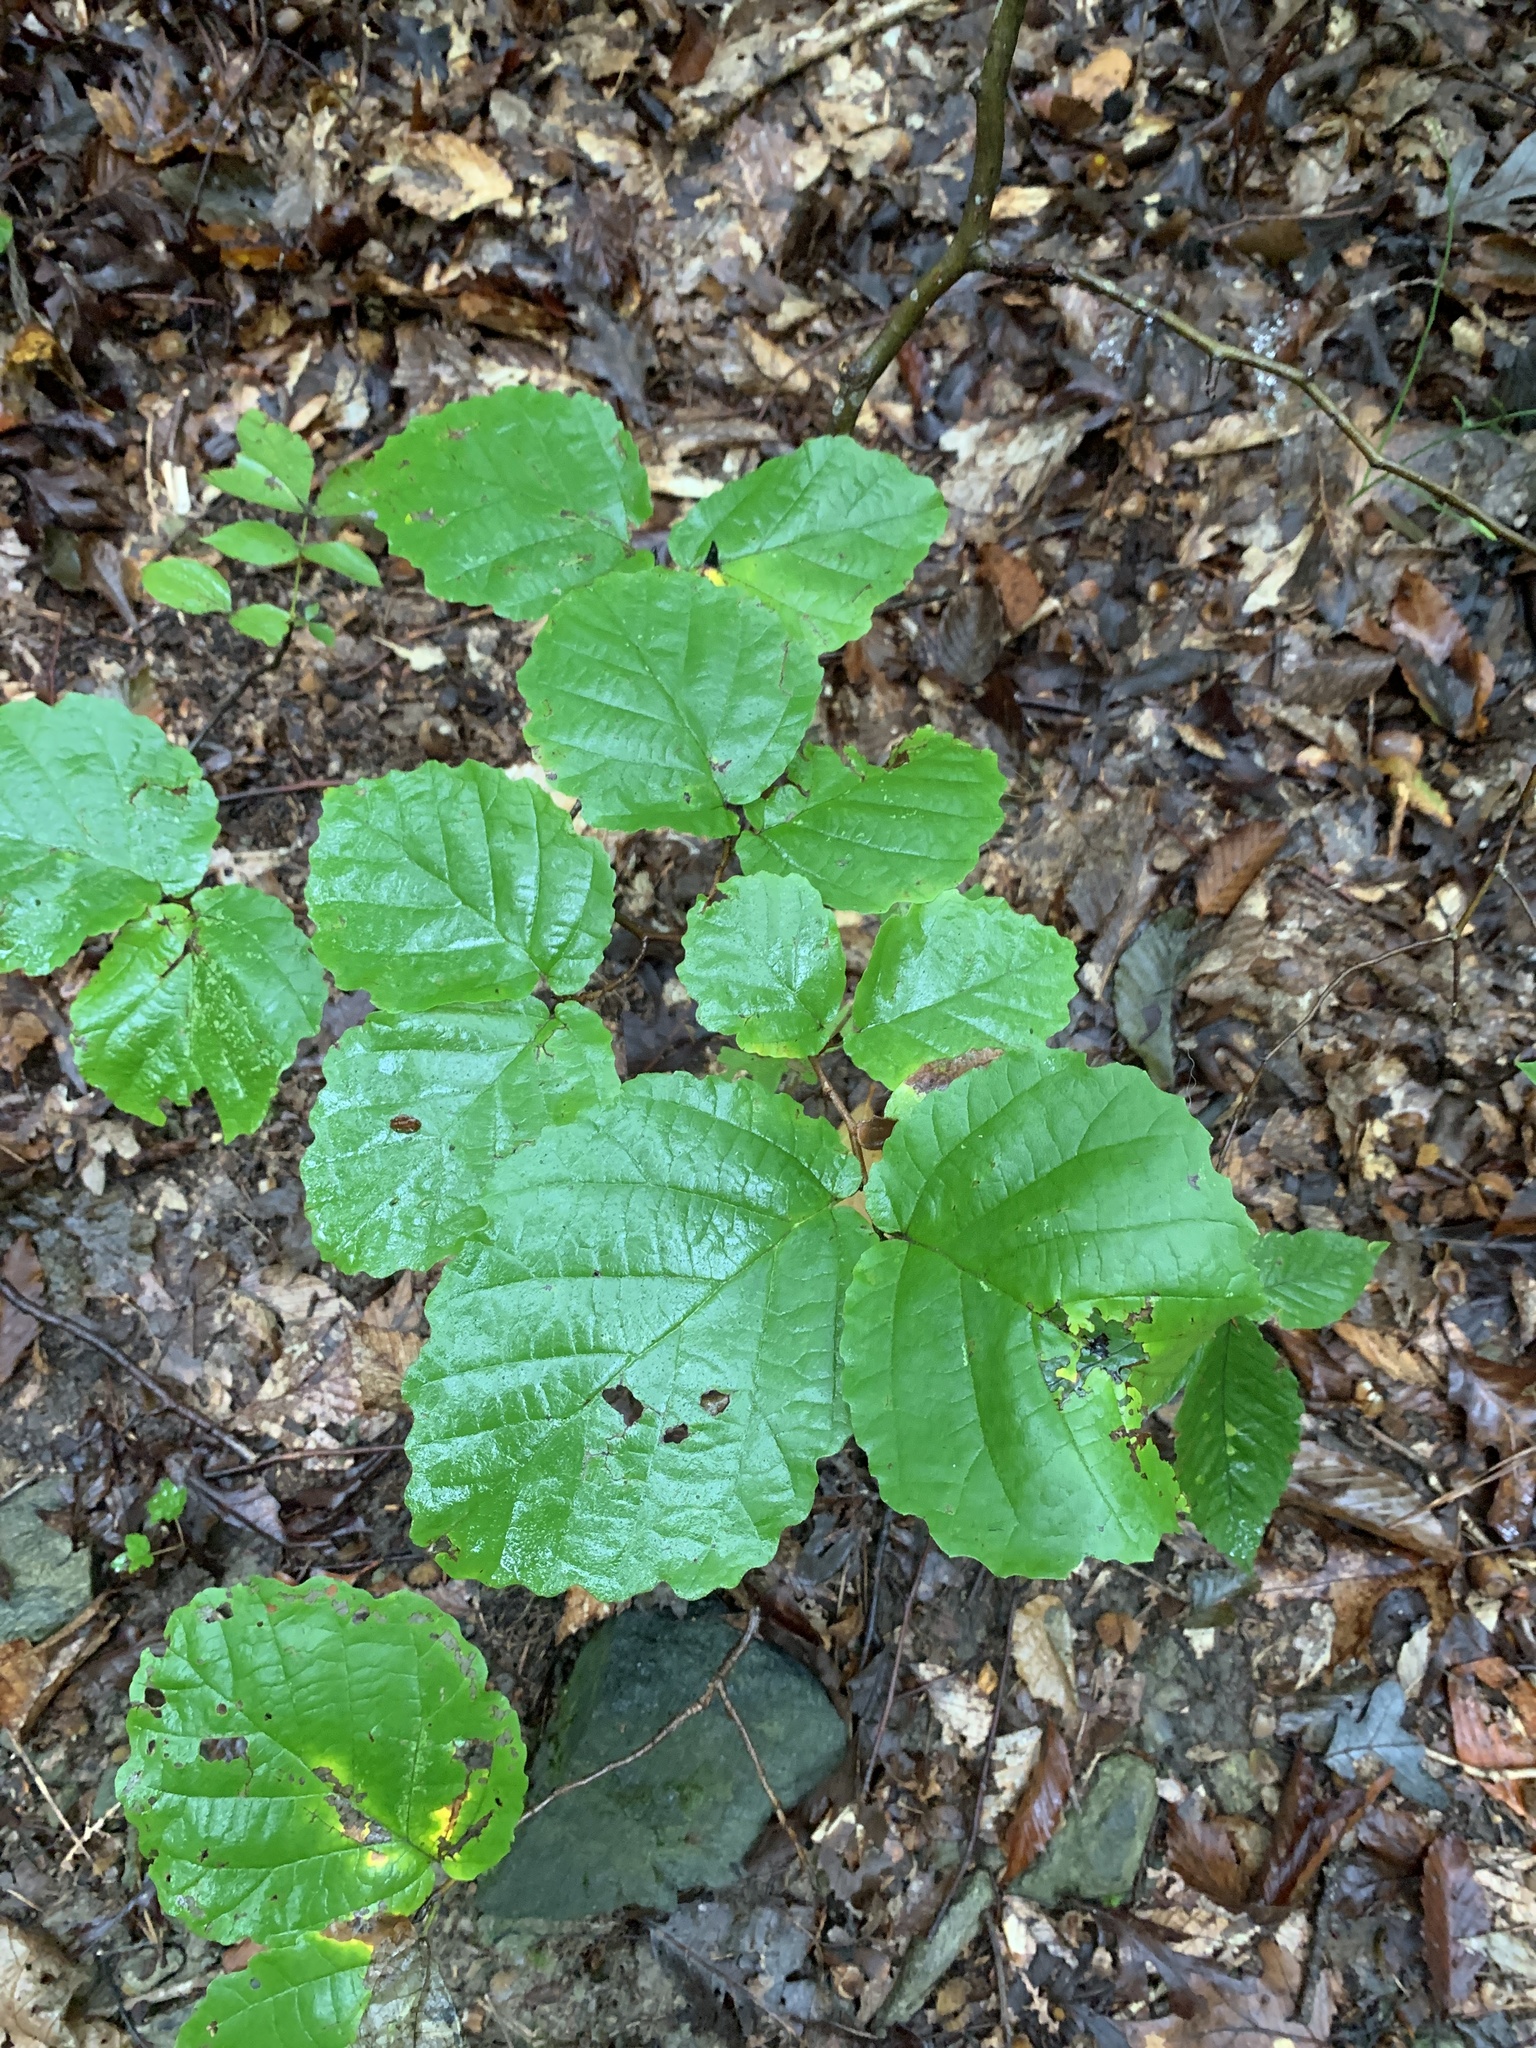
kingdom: Plantae
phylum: Tracheophyta
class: Magnoliopsida
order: Saxifragales
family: Hamamelidaceae
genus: Hamamelis
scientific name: Hamamelis virginiana
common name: Witch-hazel
